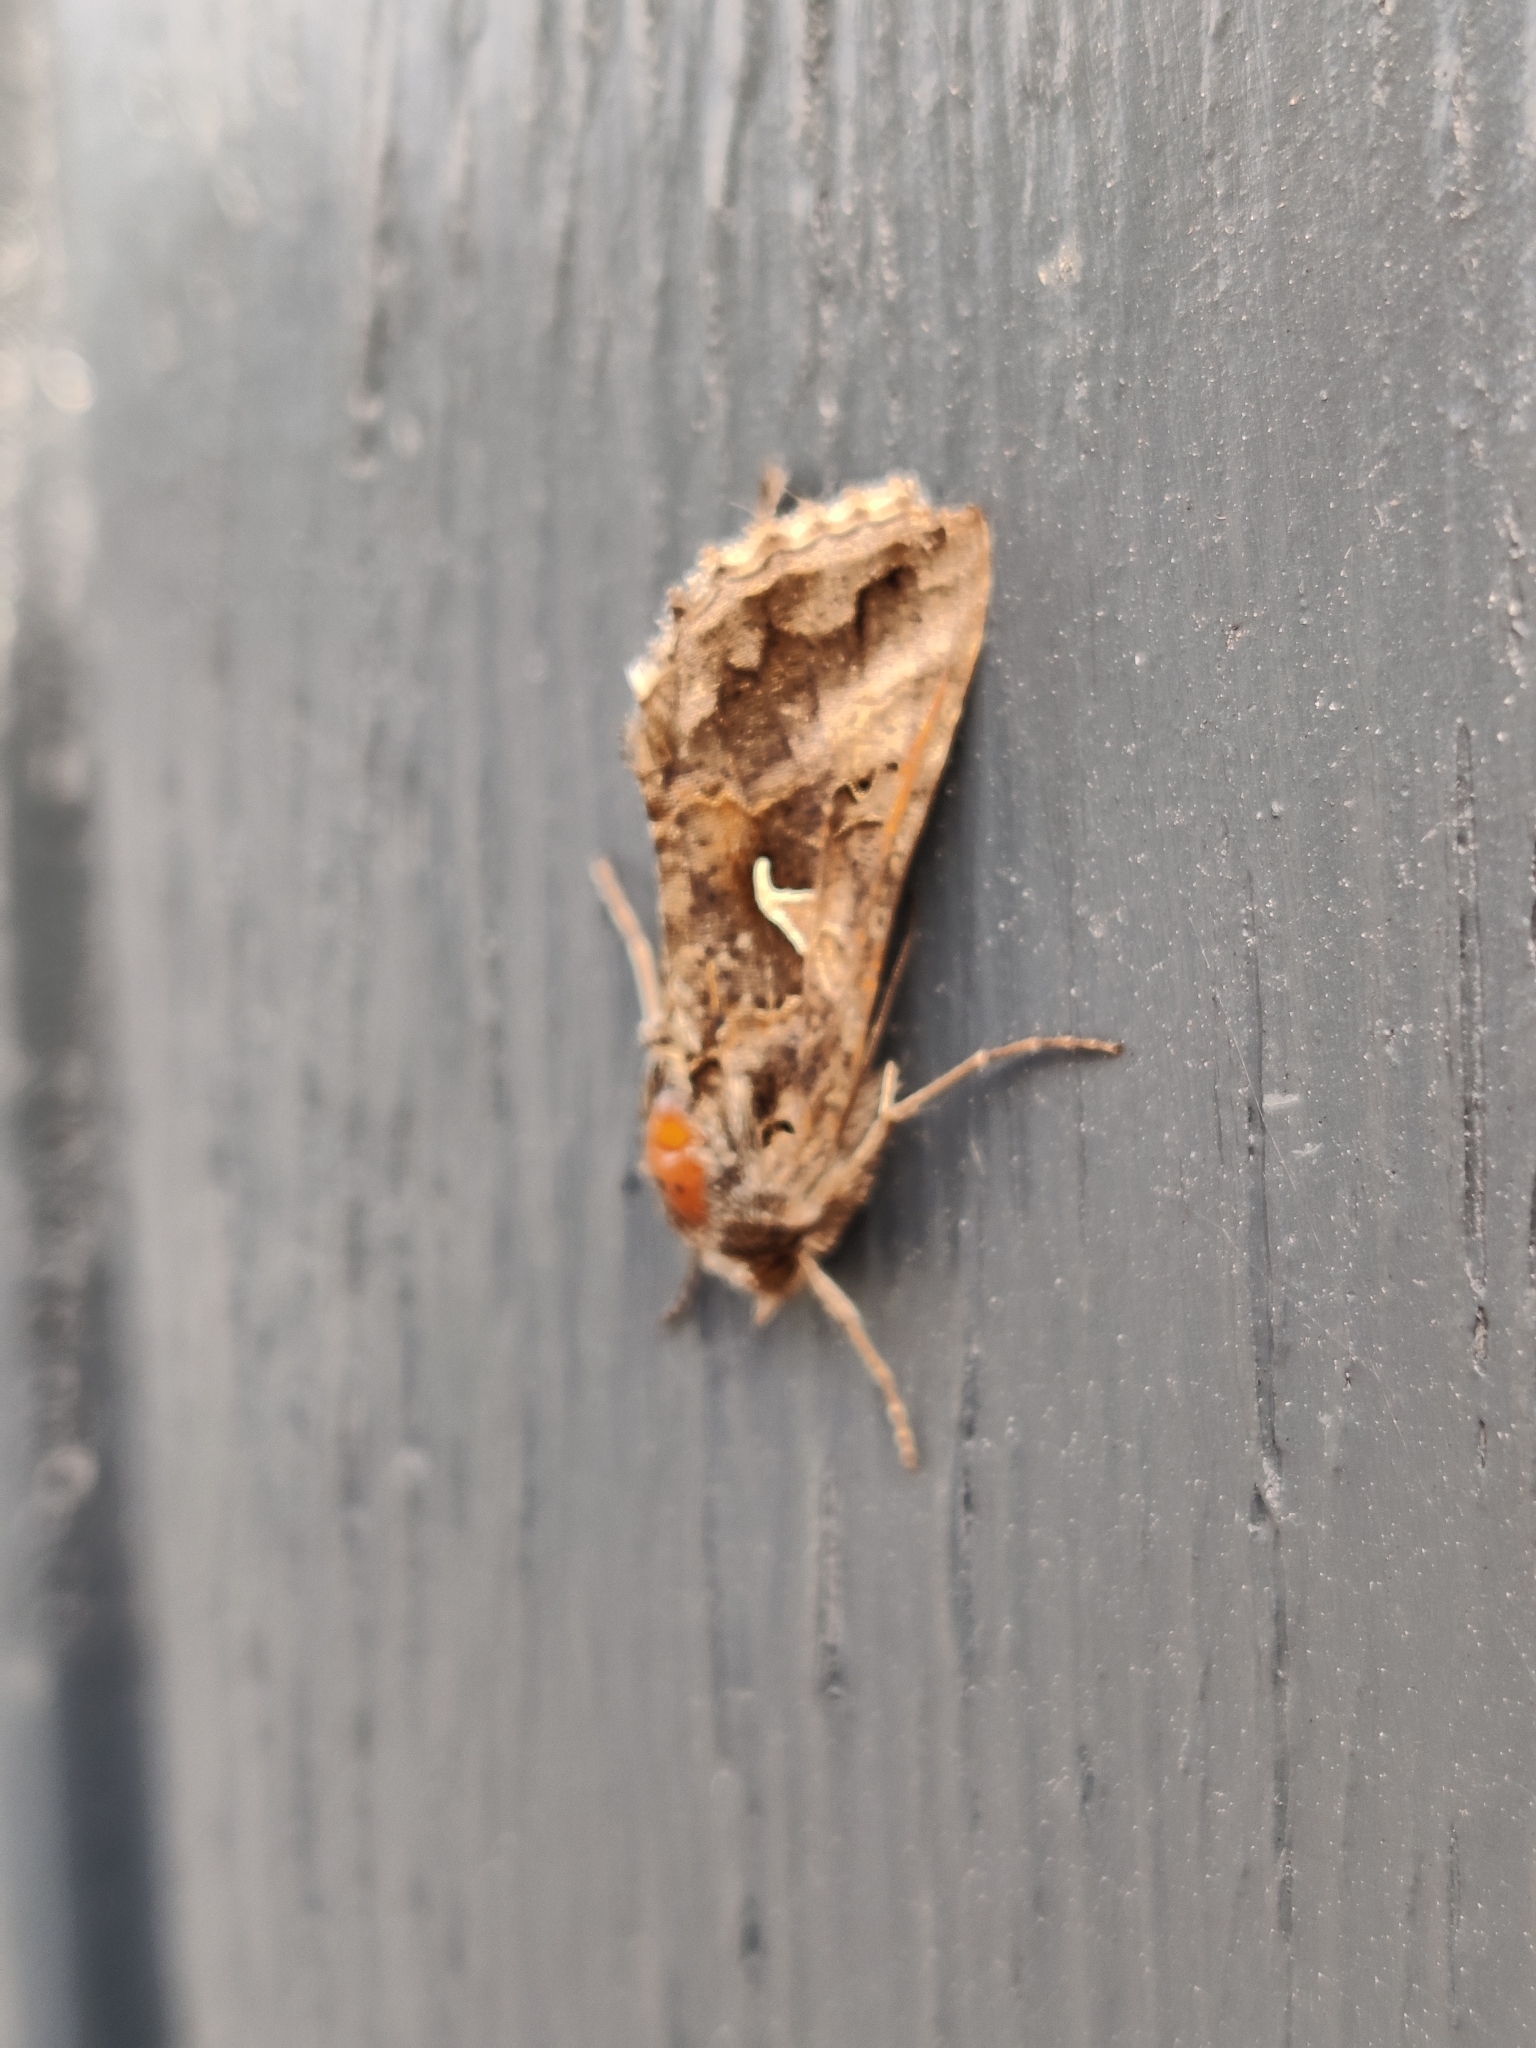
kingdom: Animalia
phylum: Arthropoda
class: Insecta
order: Lepidoptera
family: Noctuidae
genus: Autographa
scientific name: Autographa gamma
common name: Silver y
